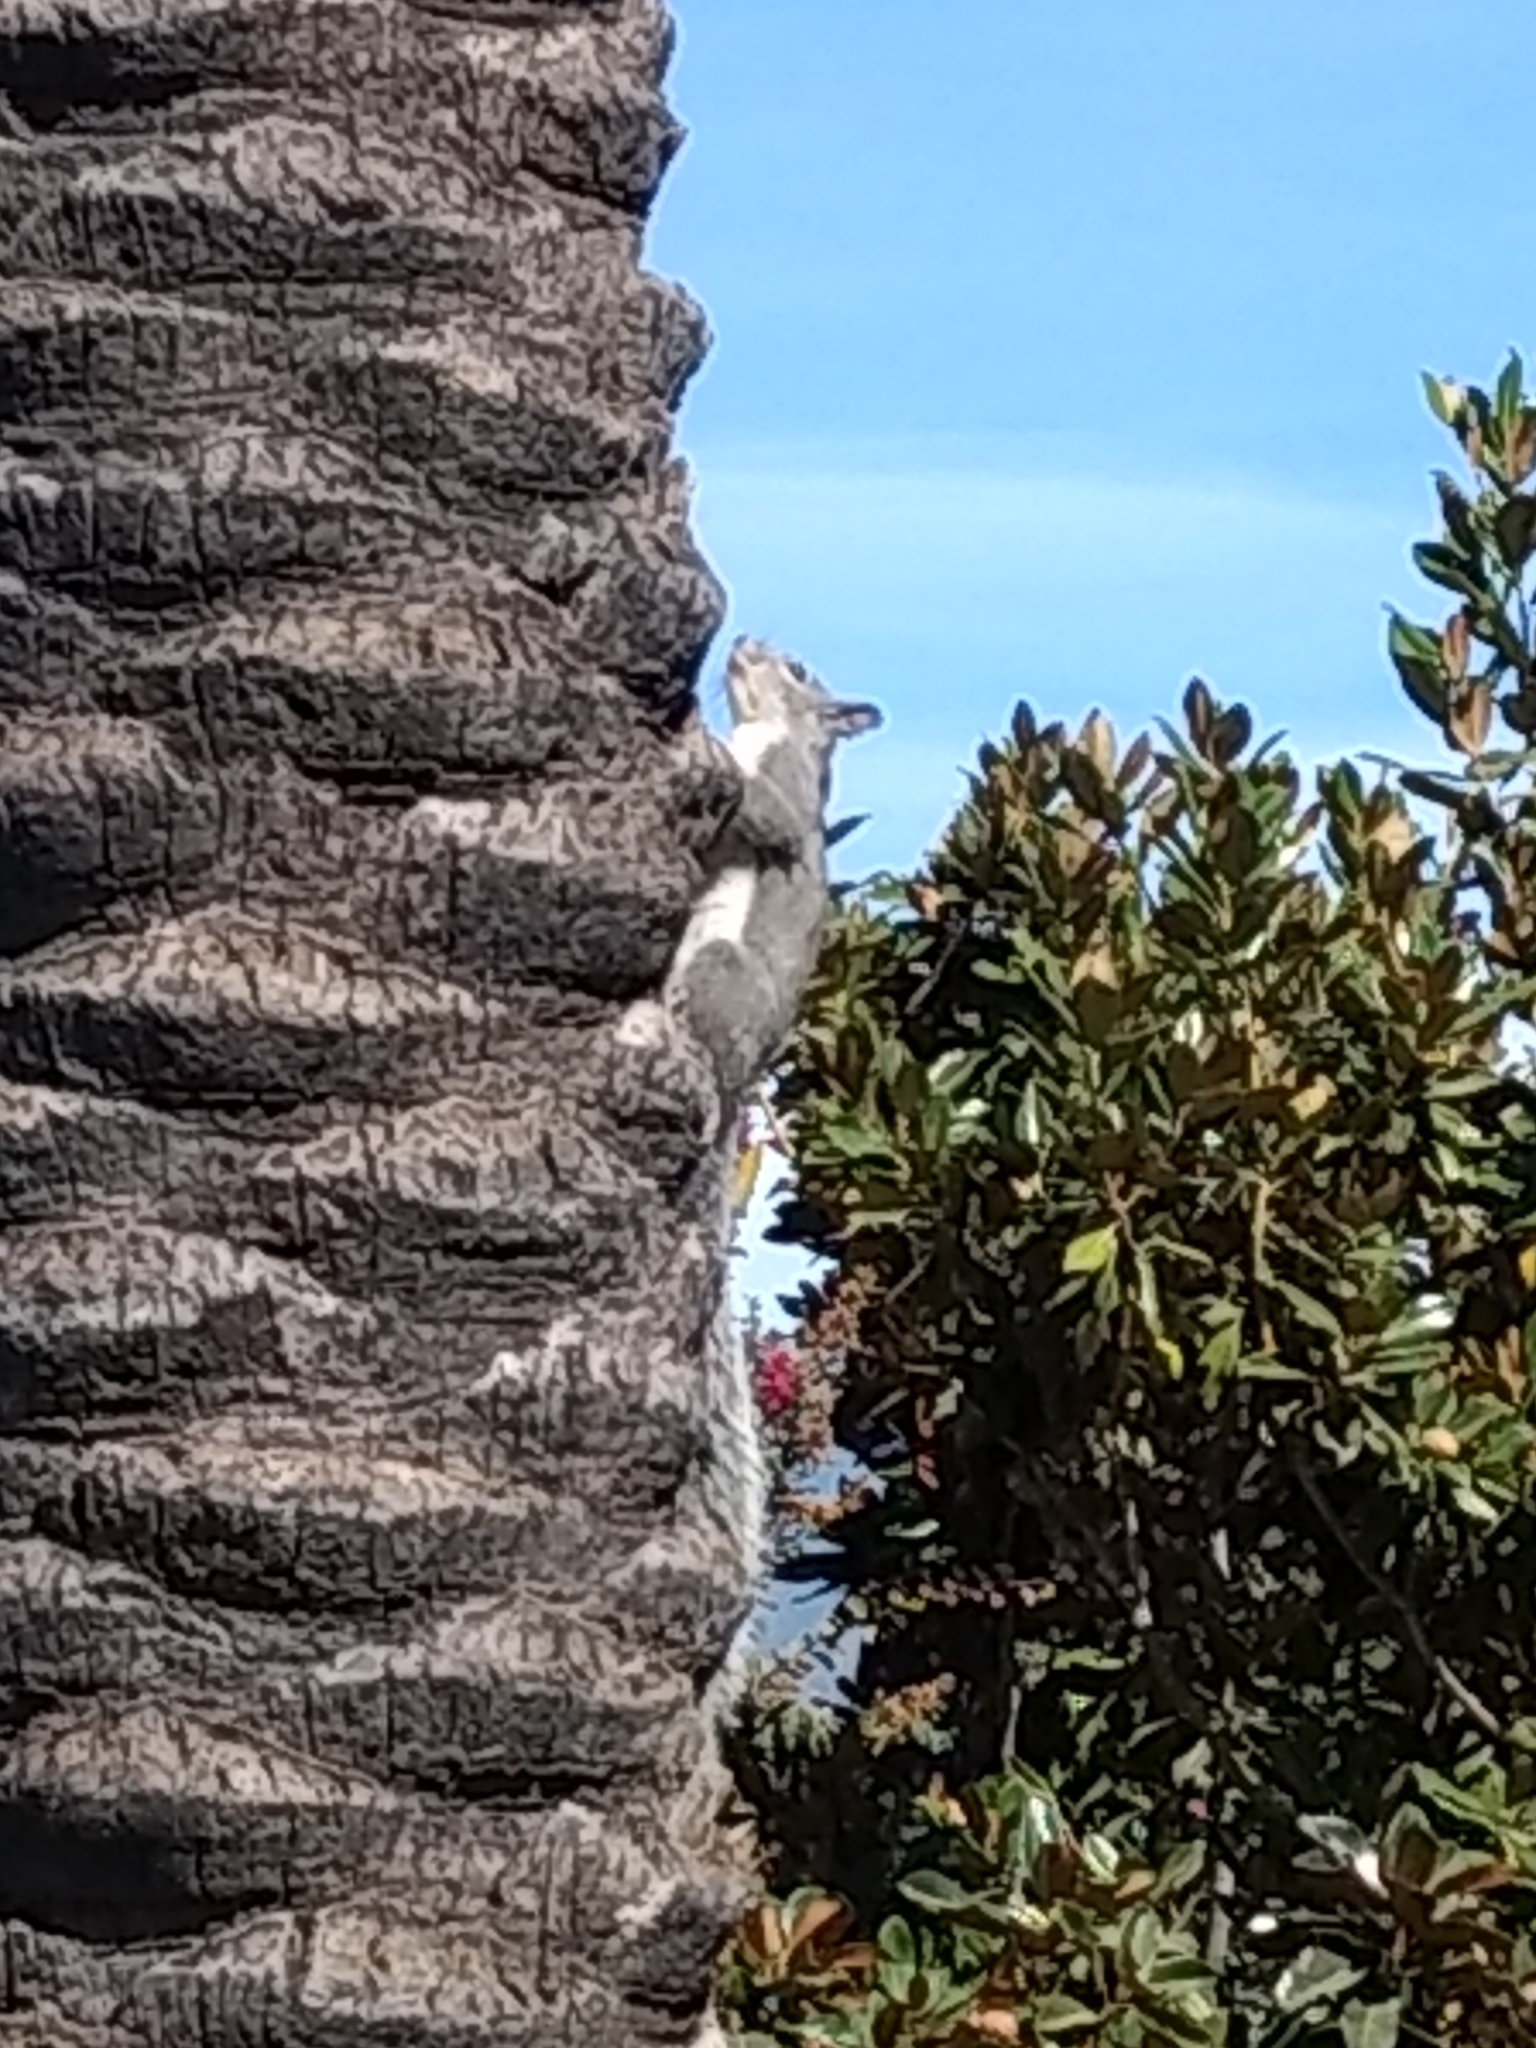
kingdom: Animalia
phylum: Chordata
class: Mammalia
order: Rodentia
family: Sciuridae
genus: Sciurus
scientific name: Sciurus griseus
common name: Western gray squirrel
